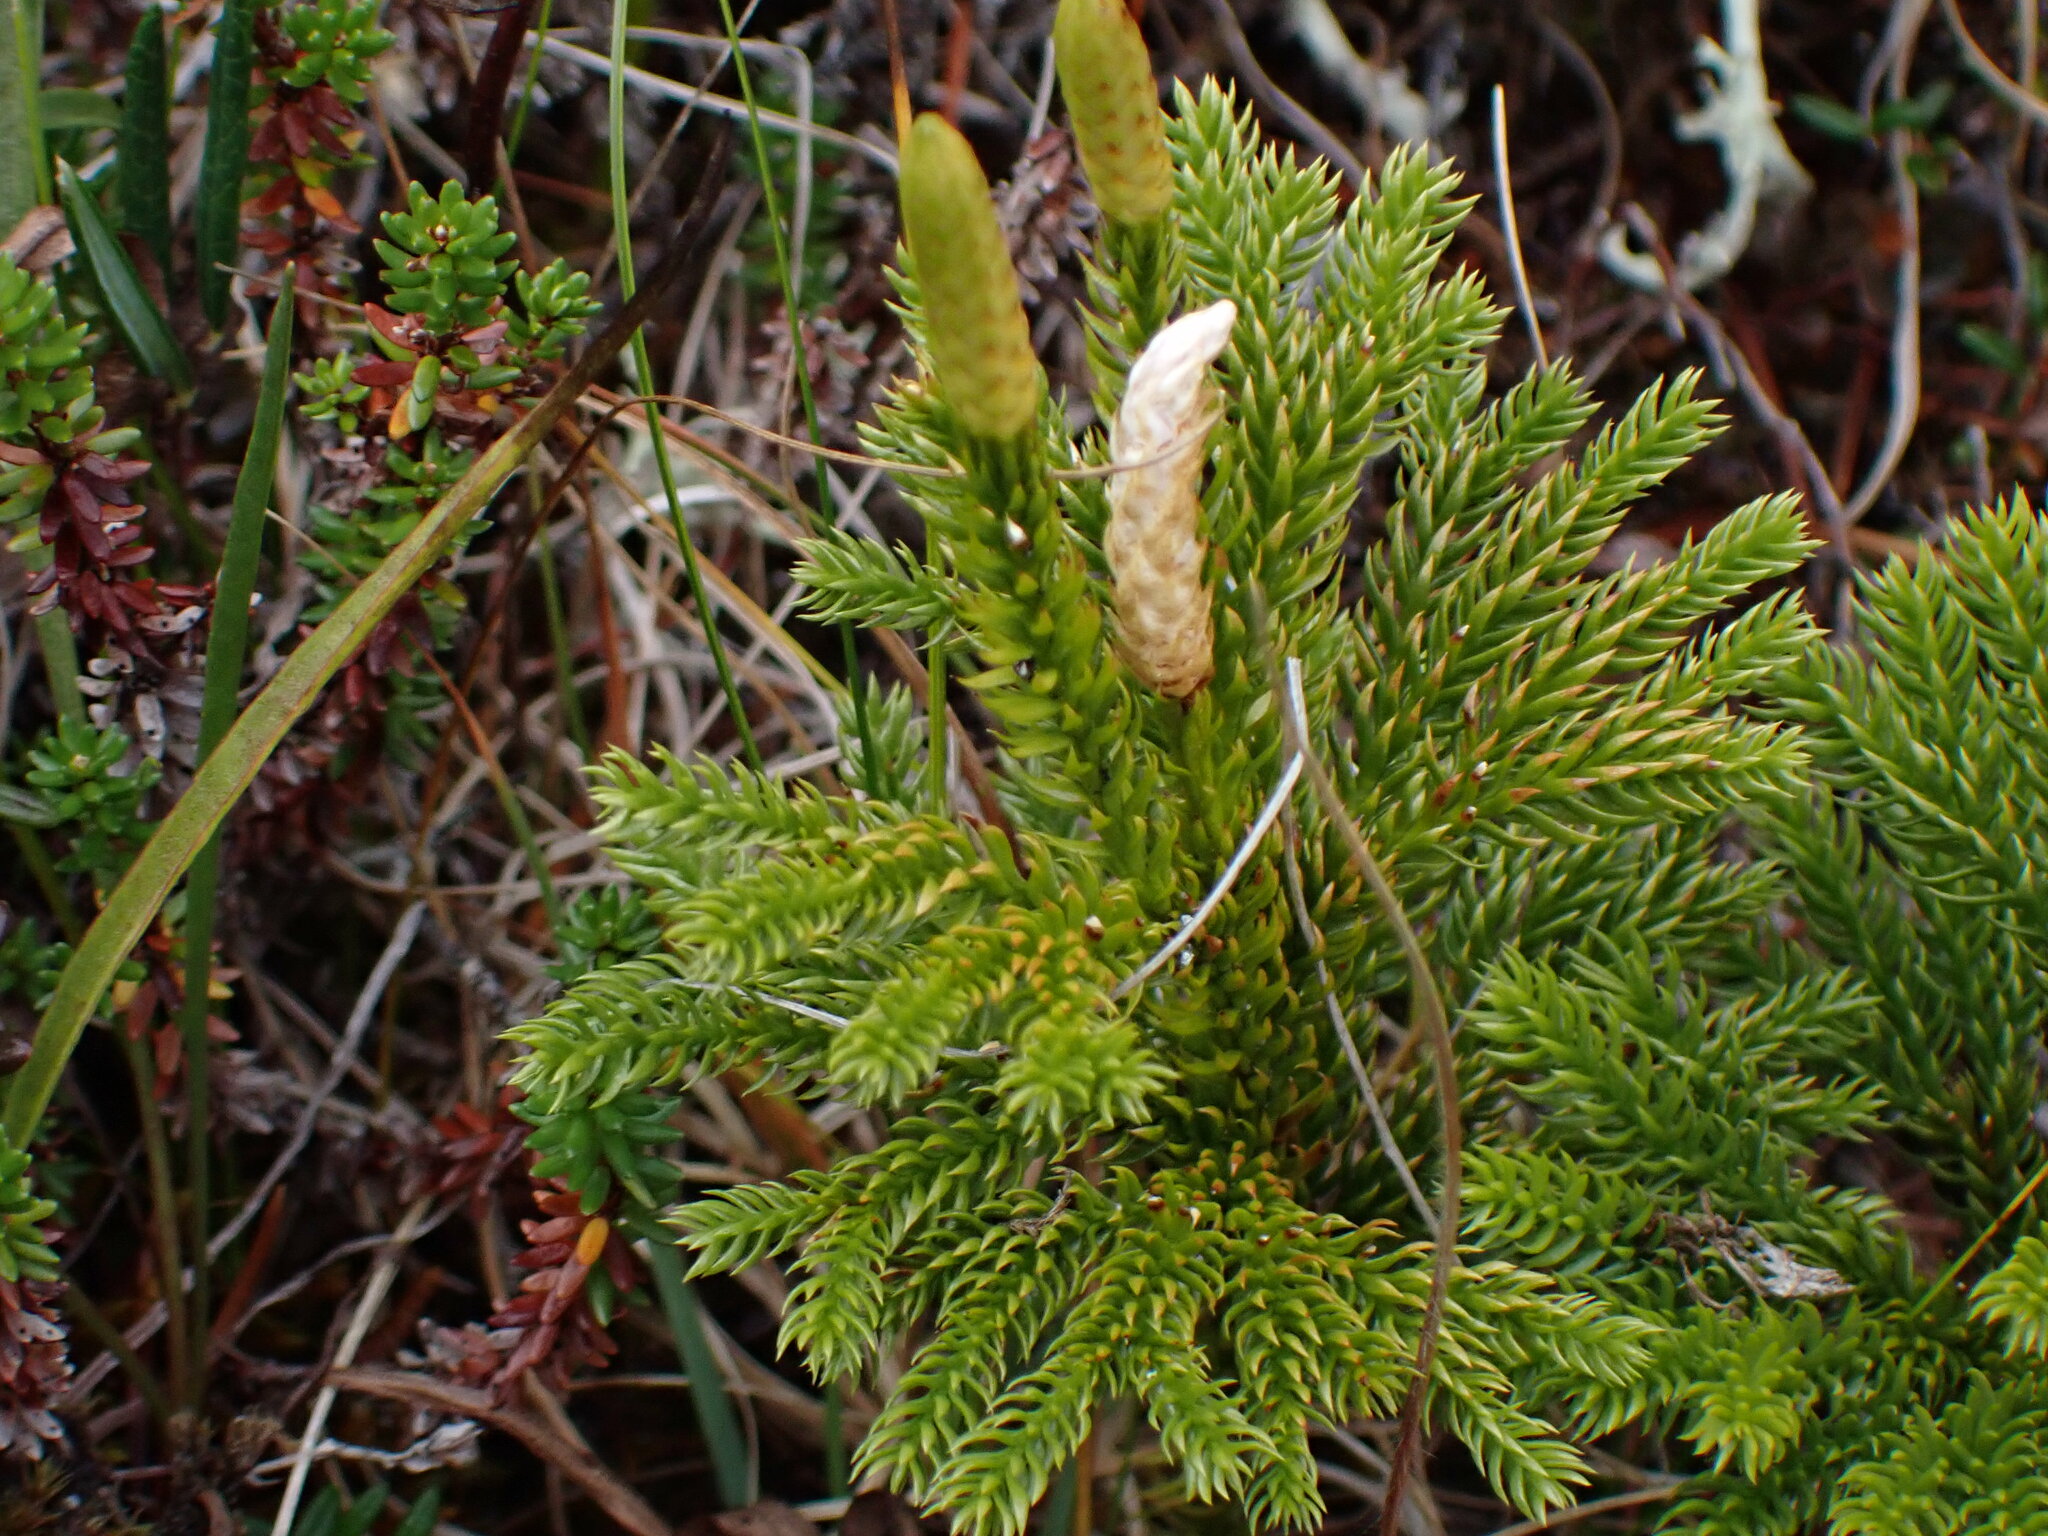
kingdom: Plantae
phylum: Tracheophyta
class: Lycopodiopsida
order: Lycopodiales
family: Lycopodiaceae
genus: Dendrolycopodium
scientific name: Dendrolycopodium dendroideum
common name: Northern tree-clubmoss
